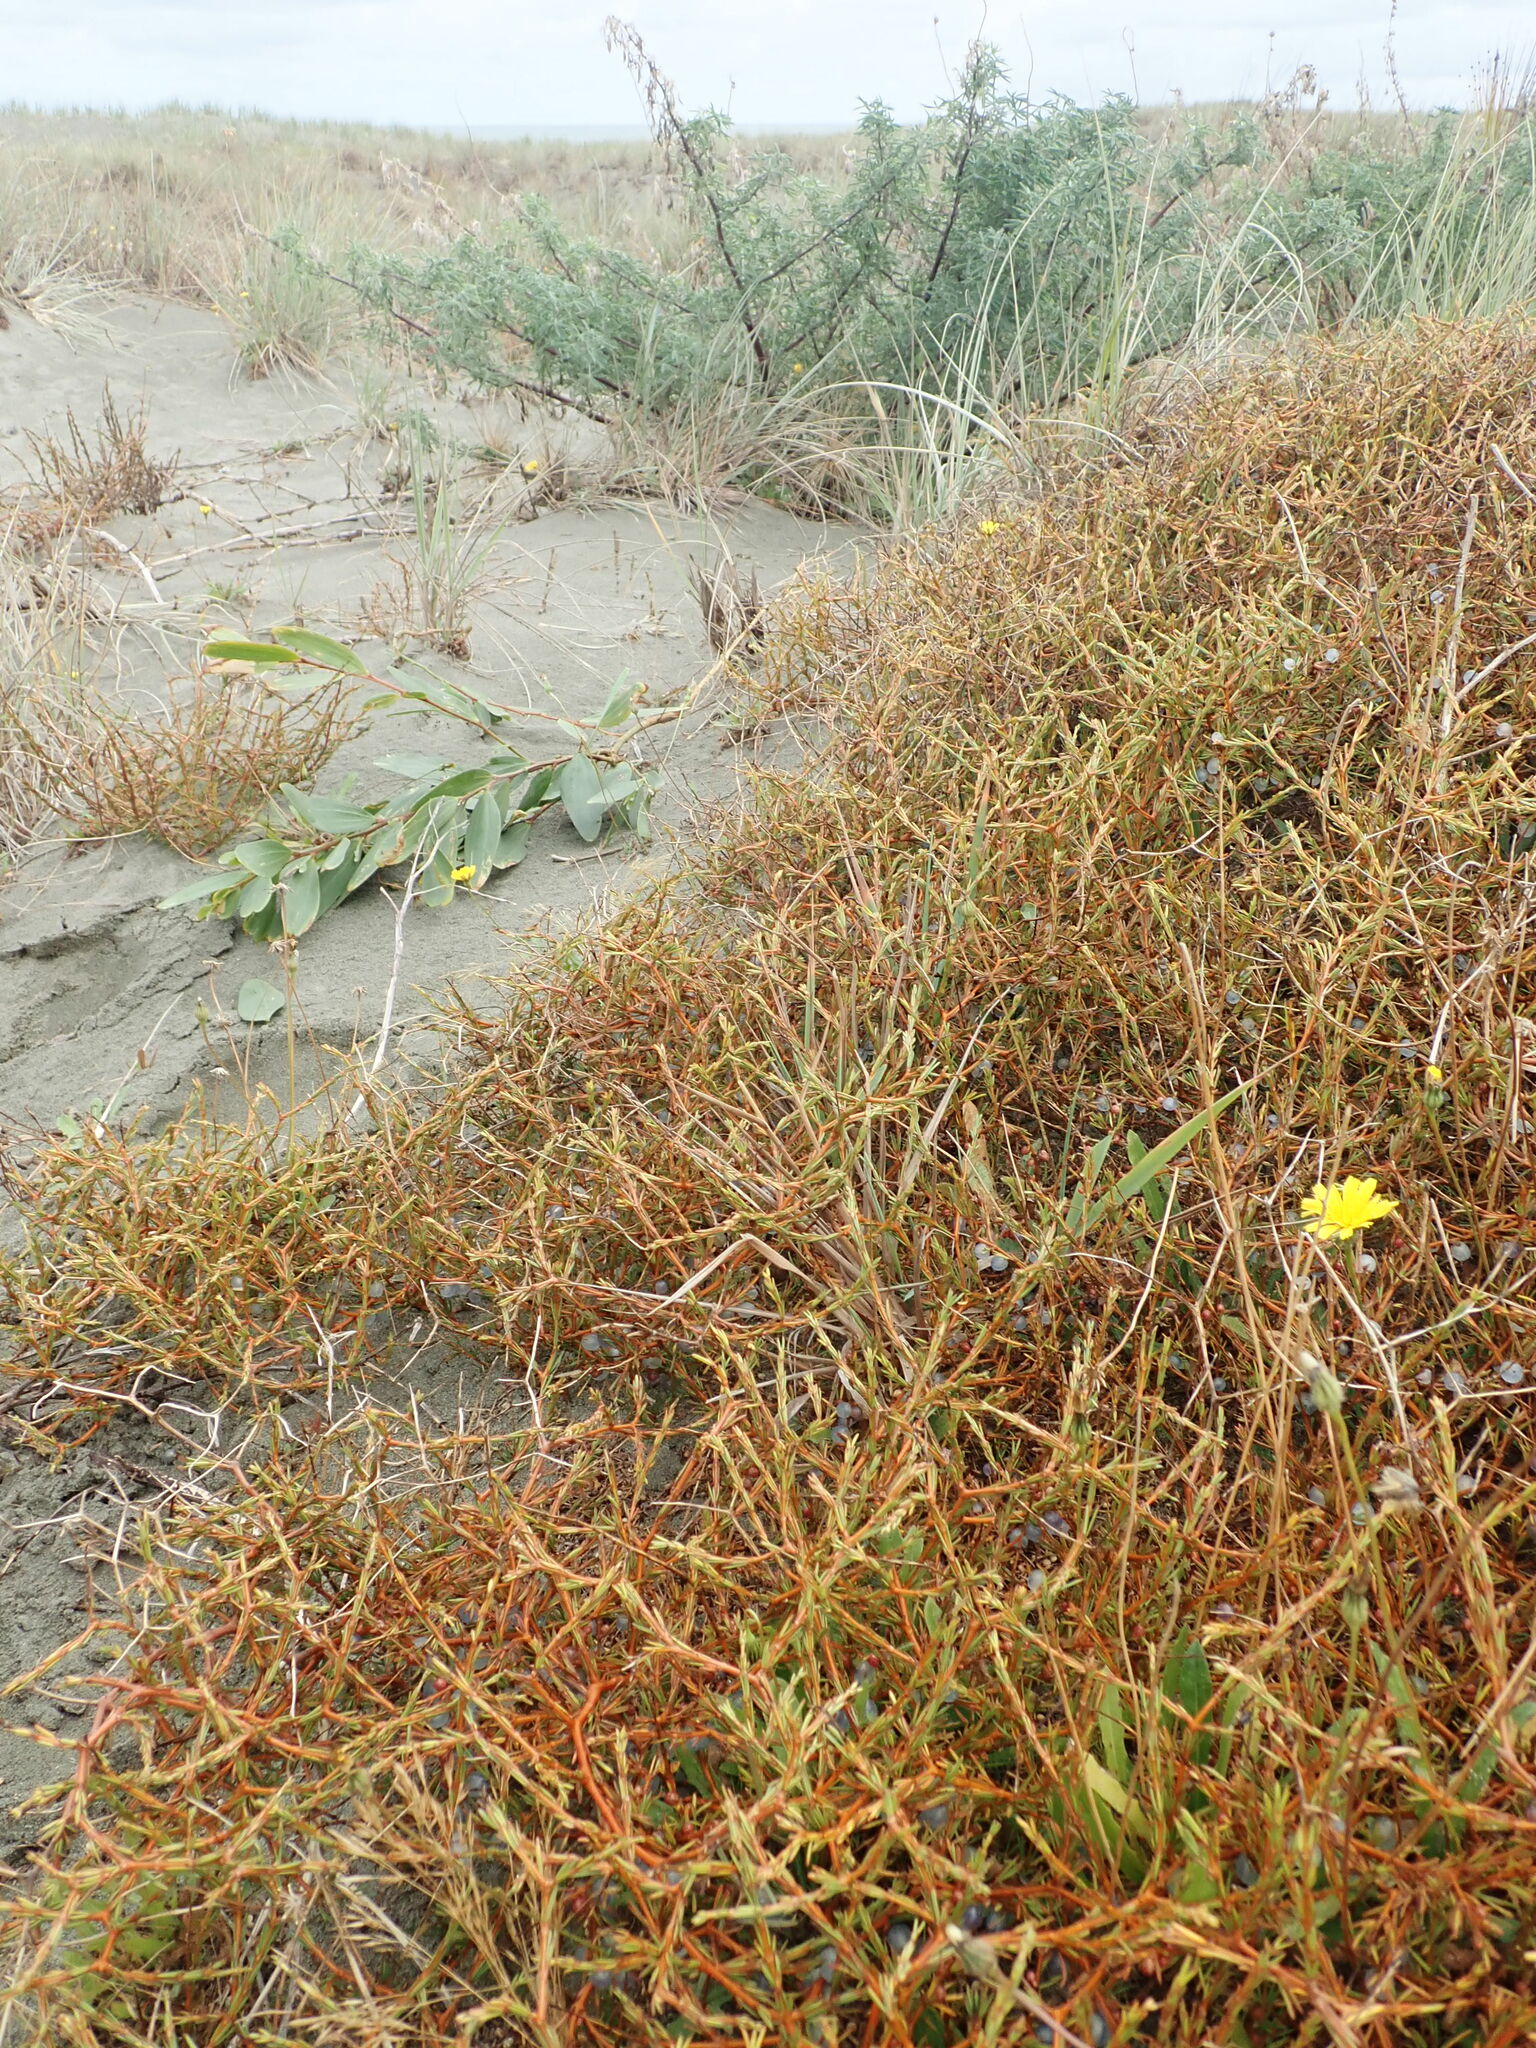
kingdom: Plantae
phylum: Tracheophyta
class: Magnoliopsida
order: Gentianales
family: Rubiaceae
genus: Coprosma
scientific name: Coprosma acerosa
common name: Sand coprosma
